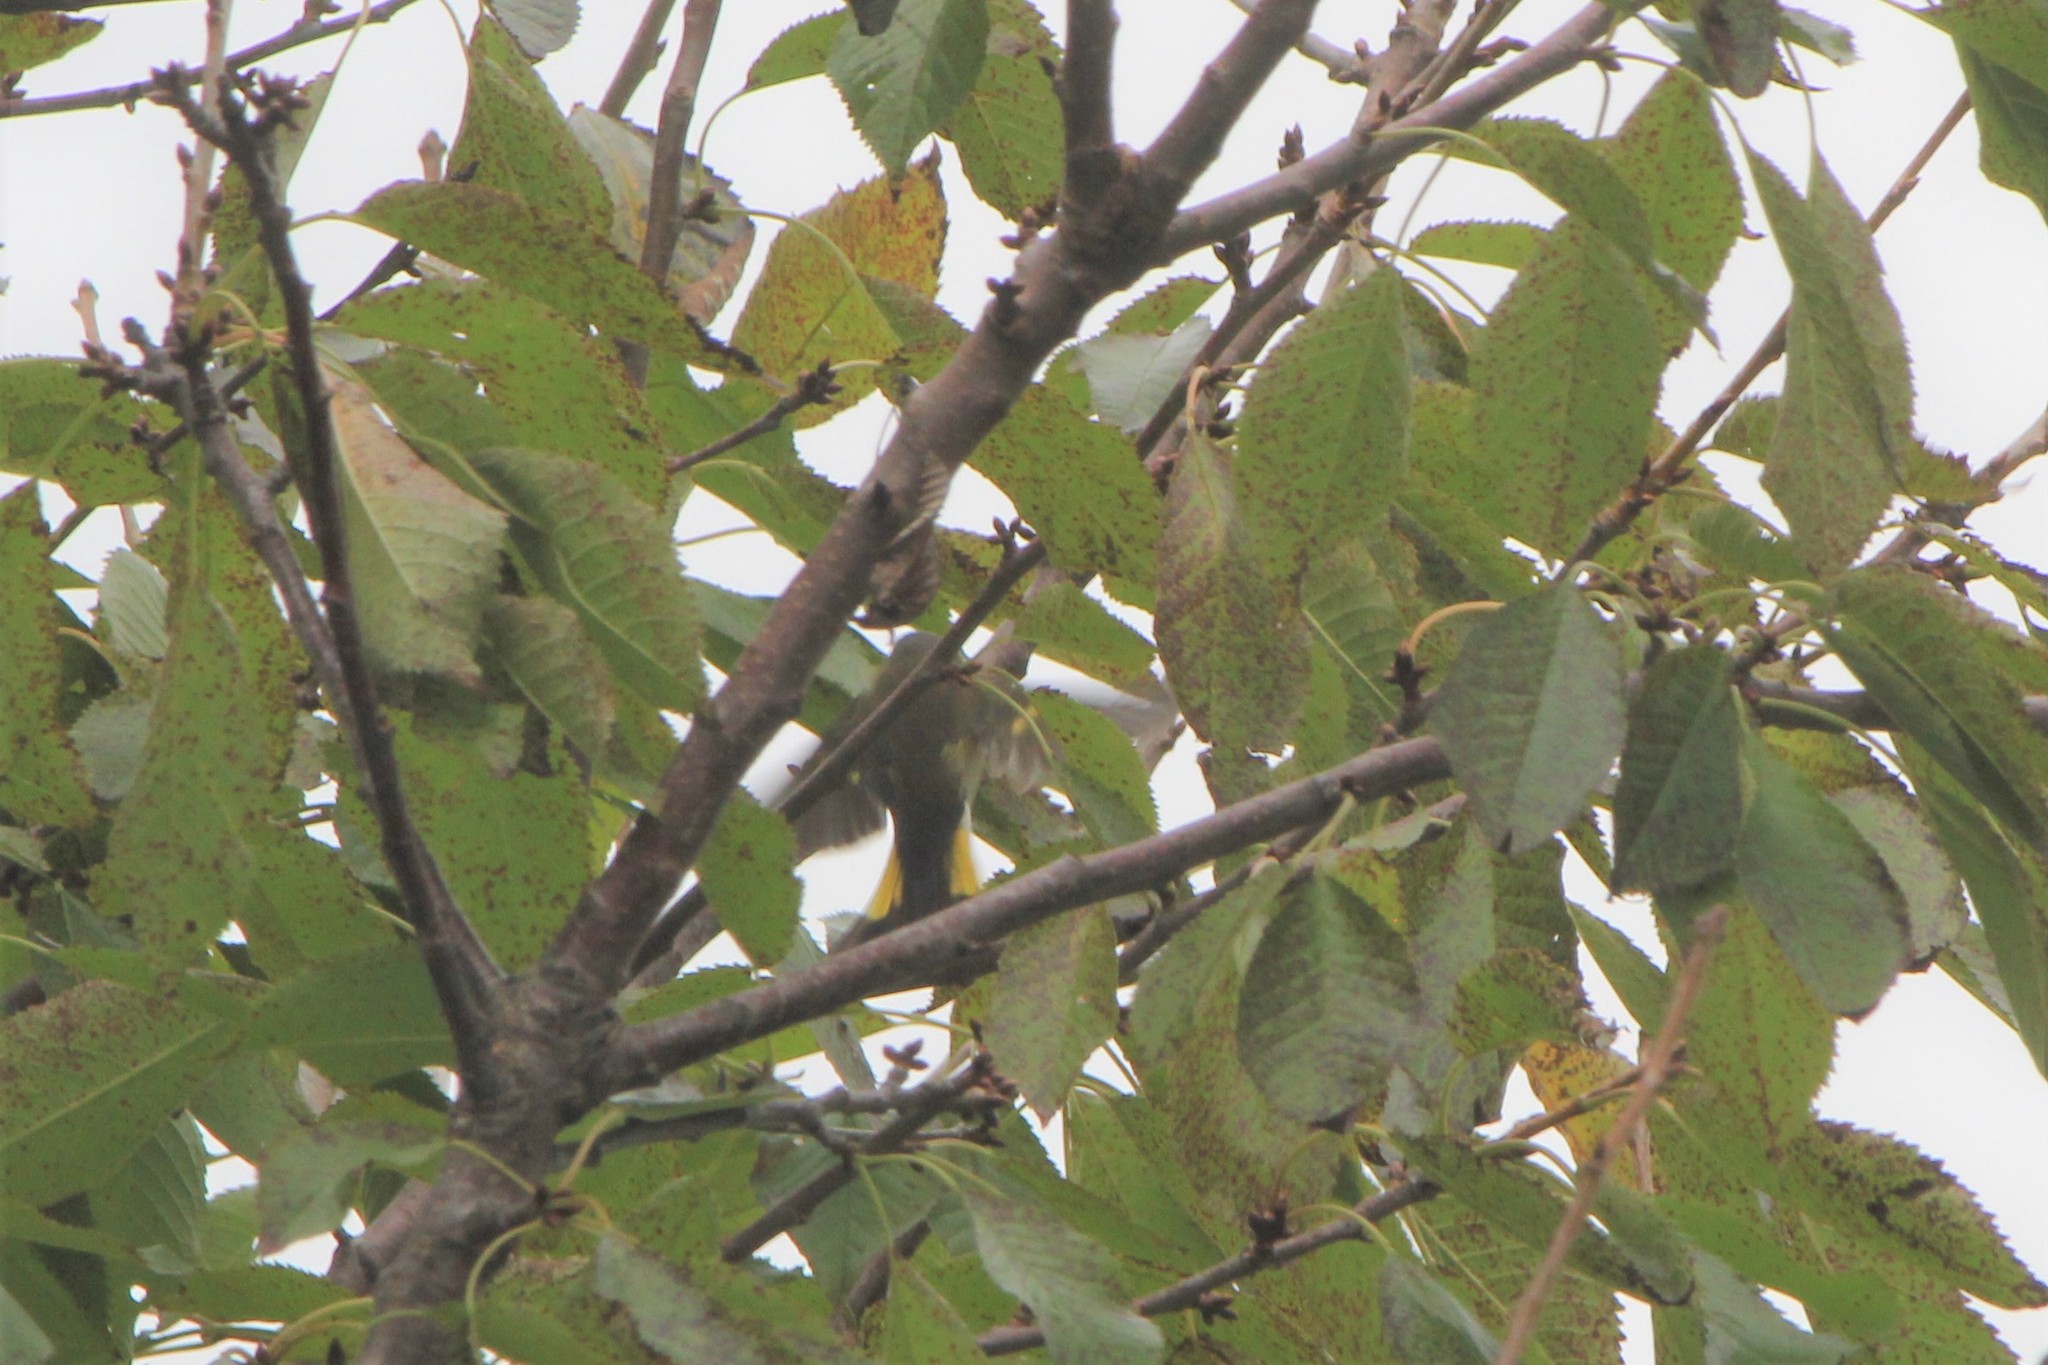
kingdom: Animalia
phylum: Chordata
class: Aves
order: Passeriformes
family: Parulidae
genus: Setophaga
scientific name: Setophaga ruticilla
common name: American redstart
